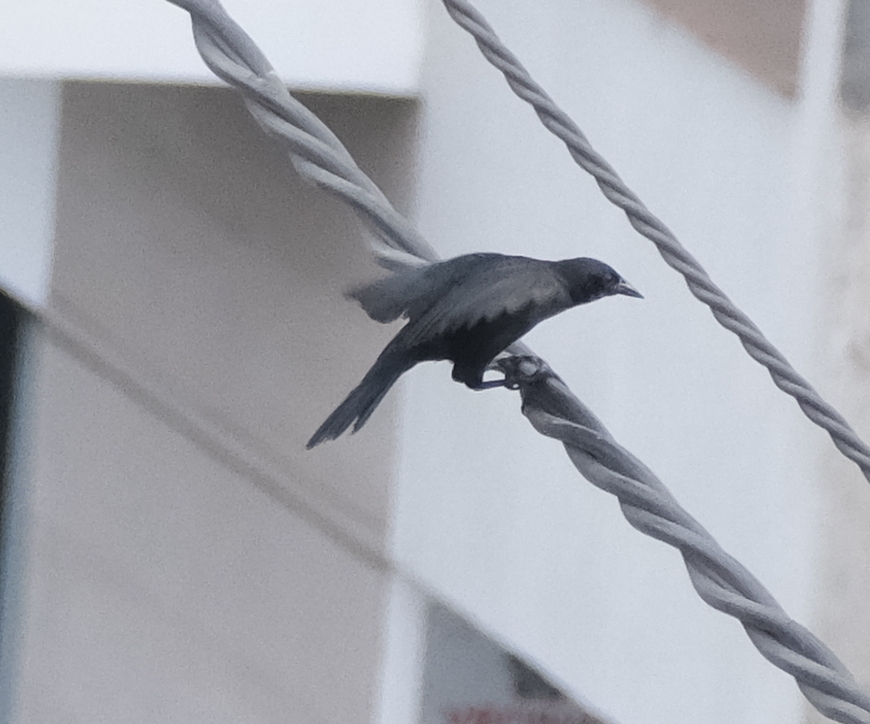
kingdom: Animalia
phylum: Chordata
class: Aves
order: Passeriformes
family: Icteridae
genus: Dives
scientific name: Dives warczewiczi
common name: Scrub blackbird
